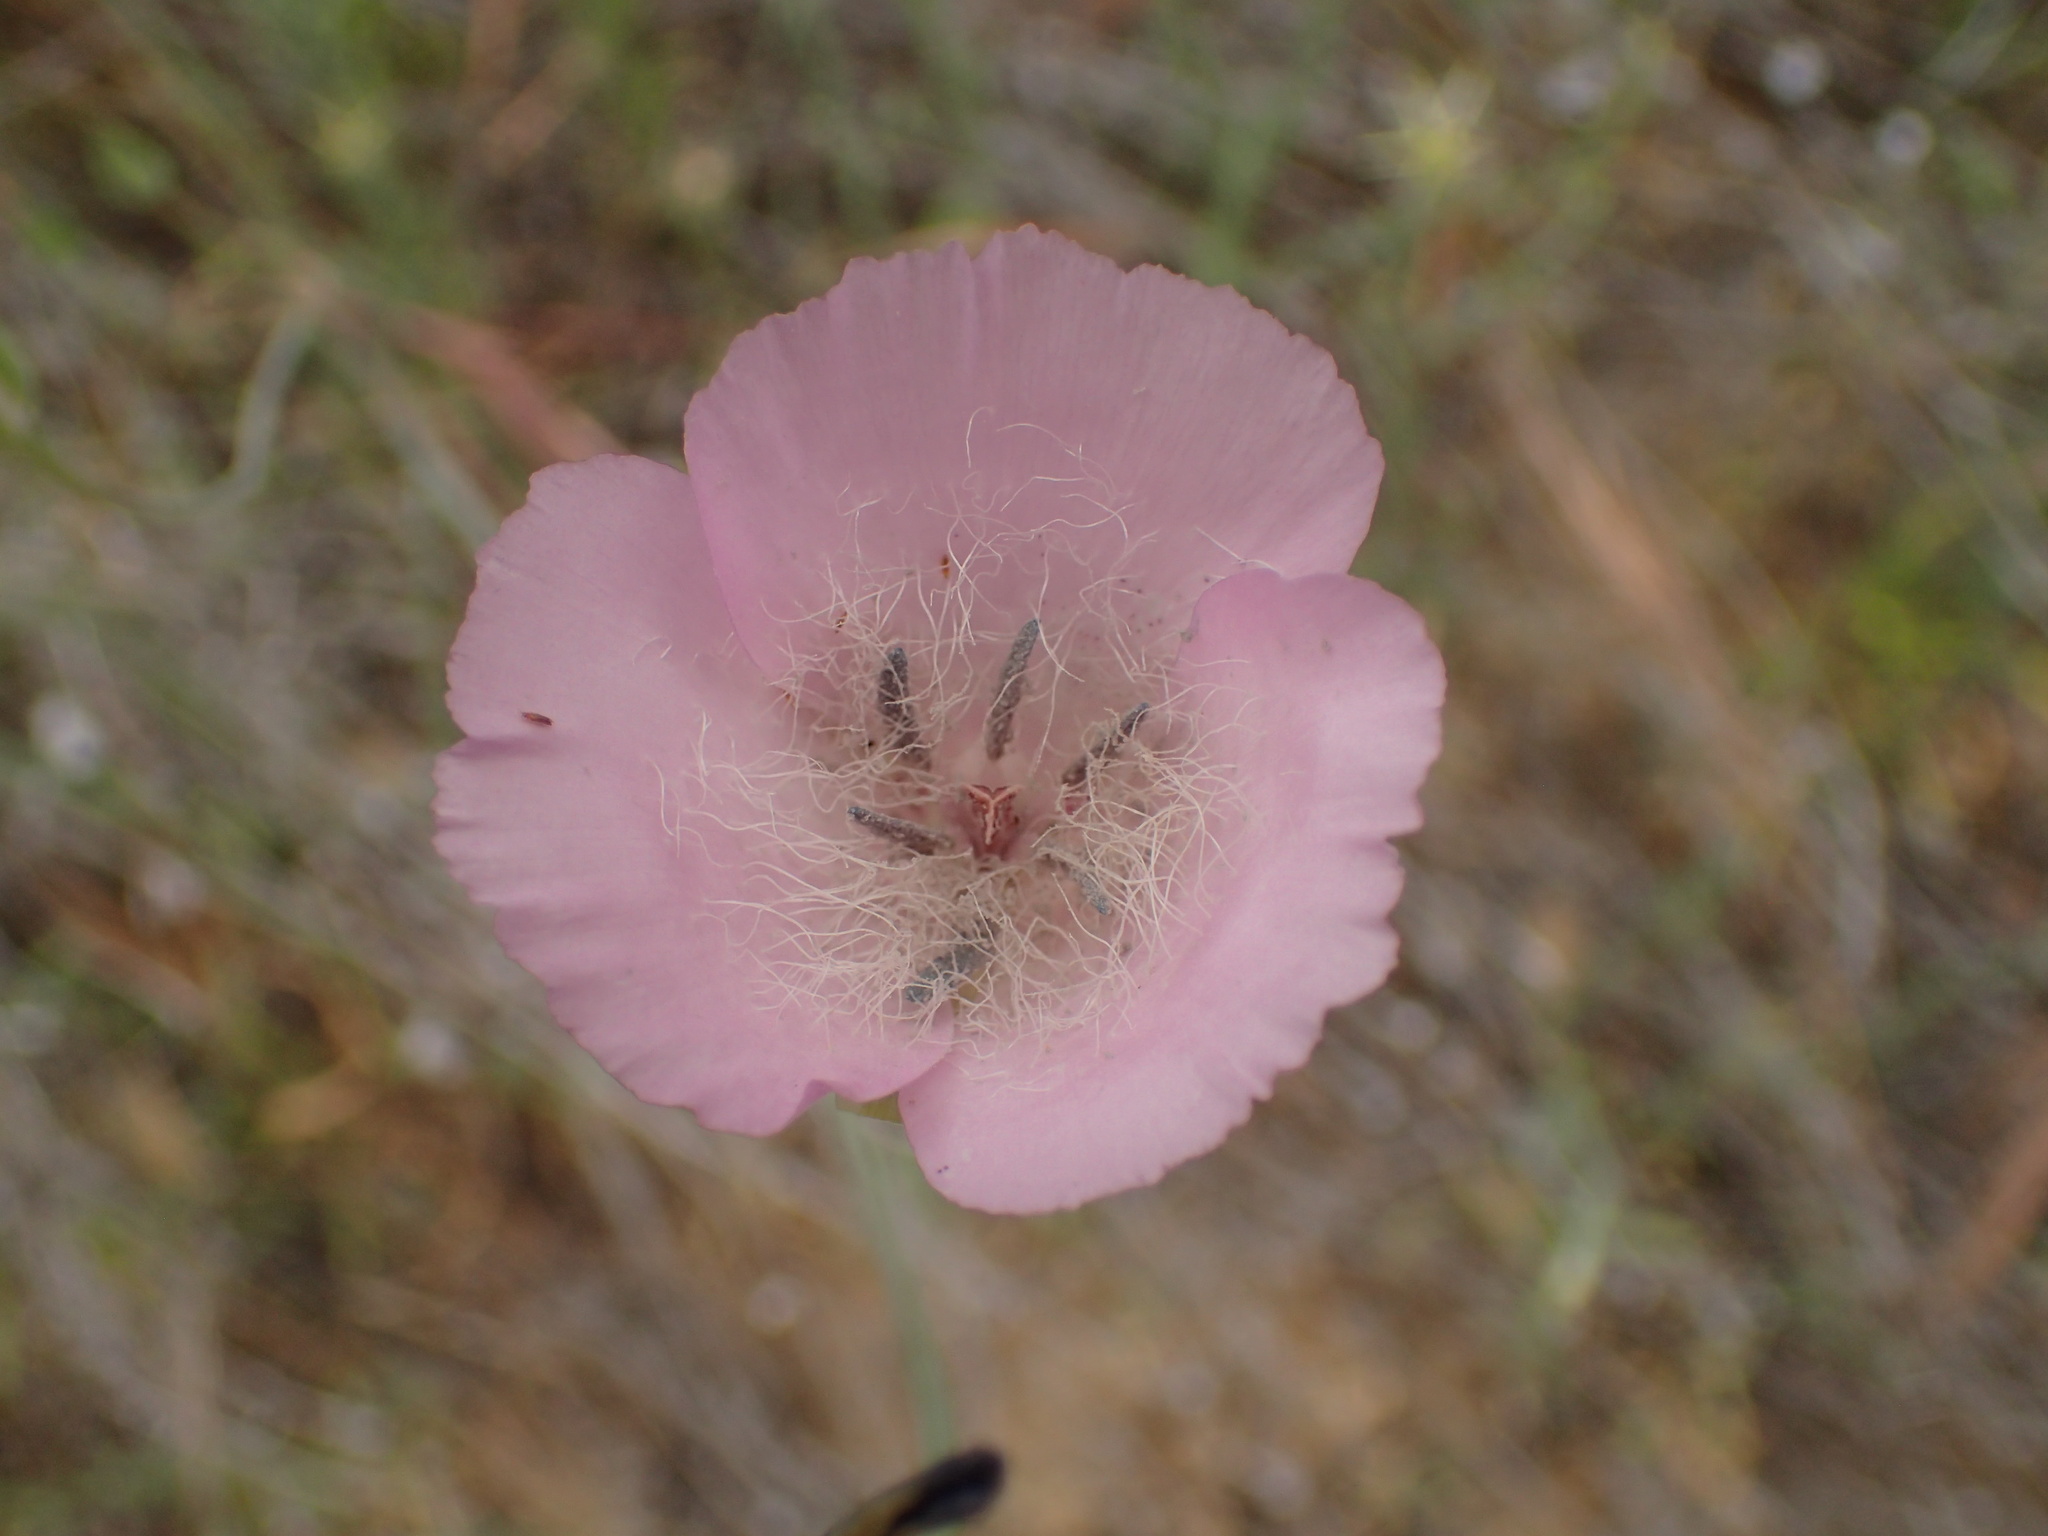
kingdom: Plantae
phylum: Tracheophyta
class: Liliopsida
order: Liliales
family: Liliaceae
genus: Calochortus
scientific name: Calochortus splendens
